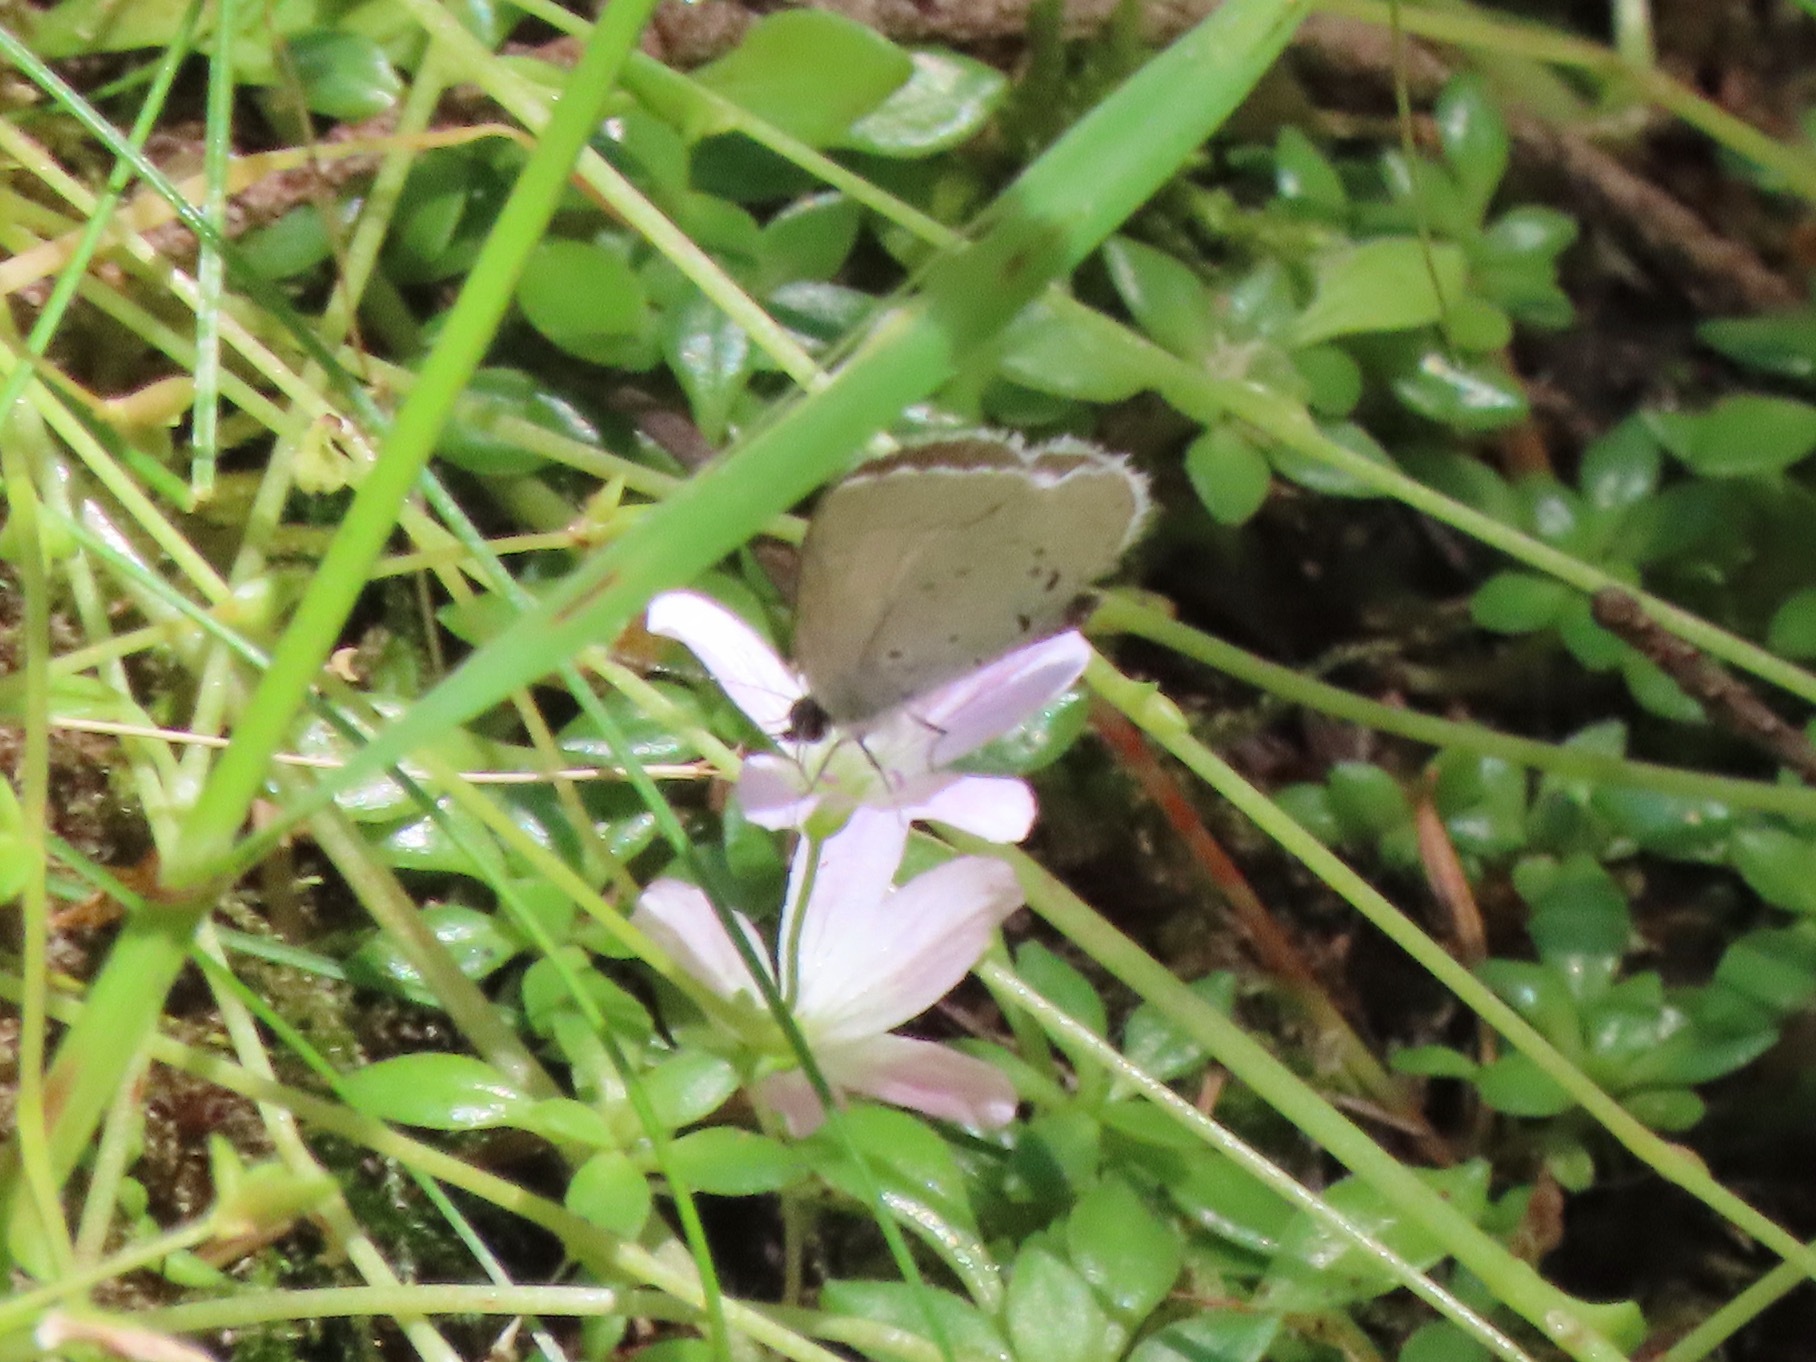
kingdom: Animalia
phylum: Arthropoda
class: Insecta
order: Lepidoptera
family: Lycaenidae
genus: Celastrina
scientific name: Celastrina ladon
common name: Spring azure
